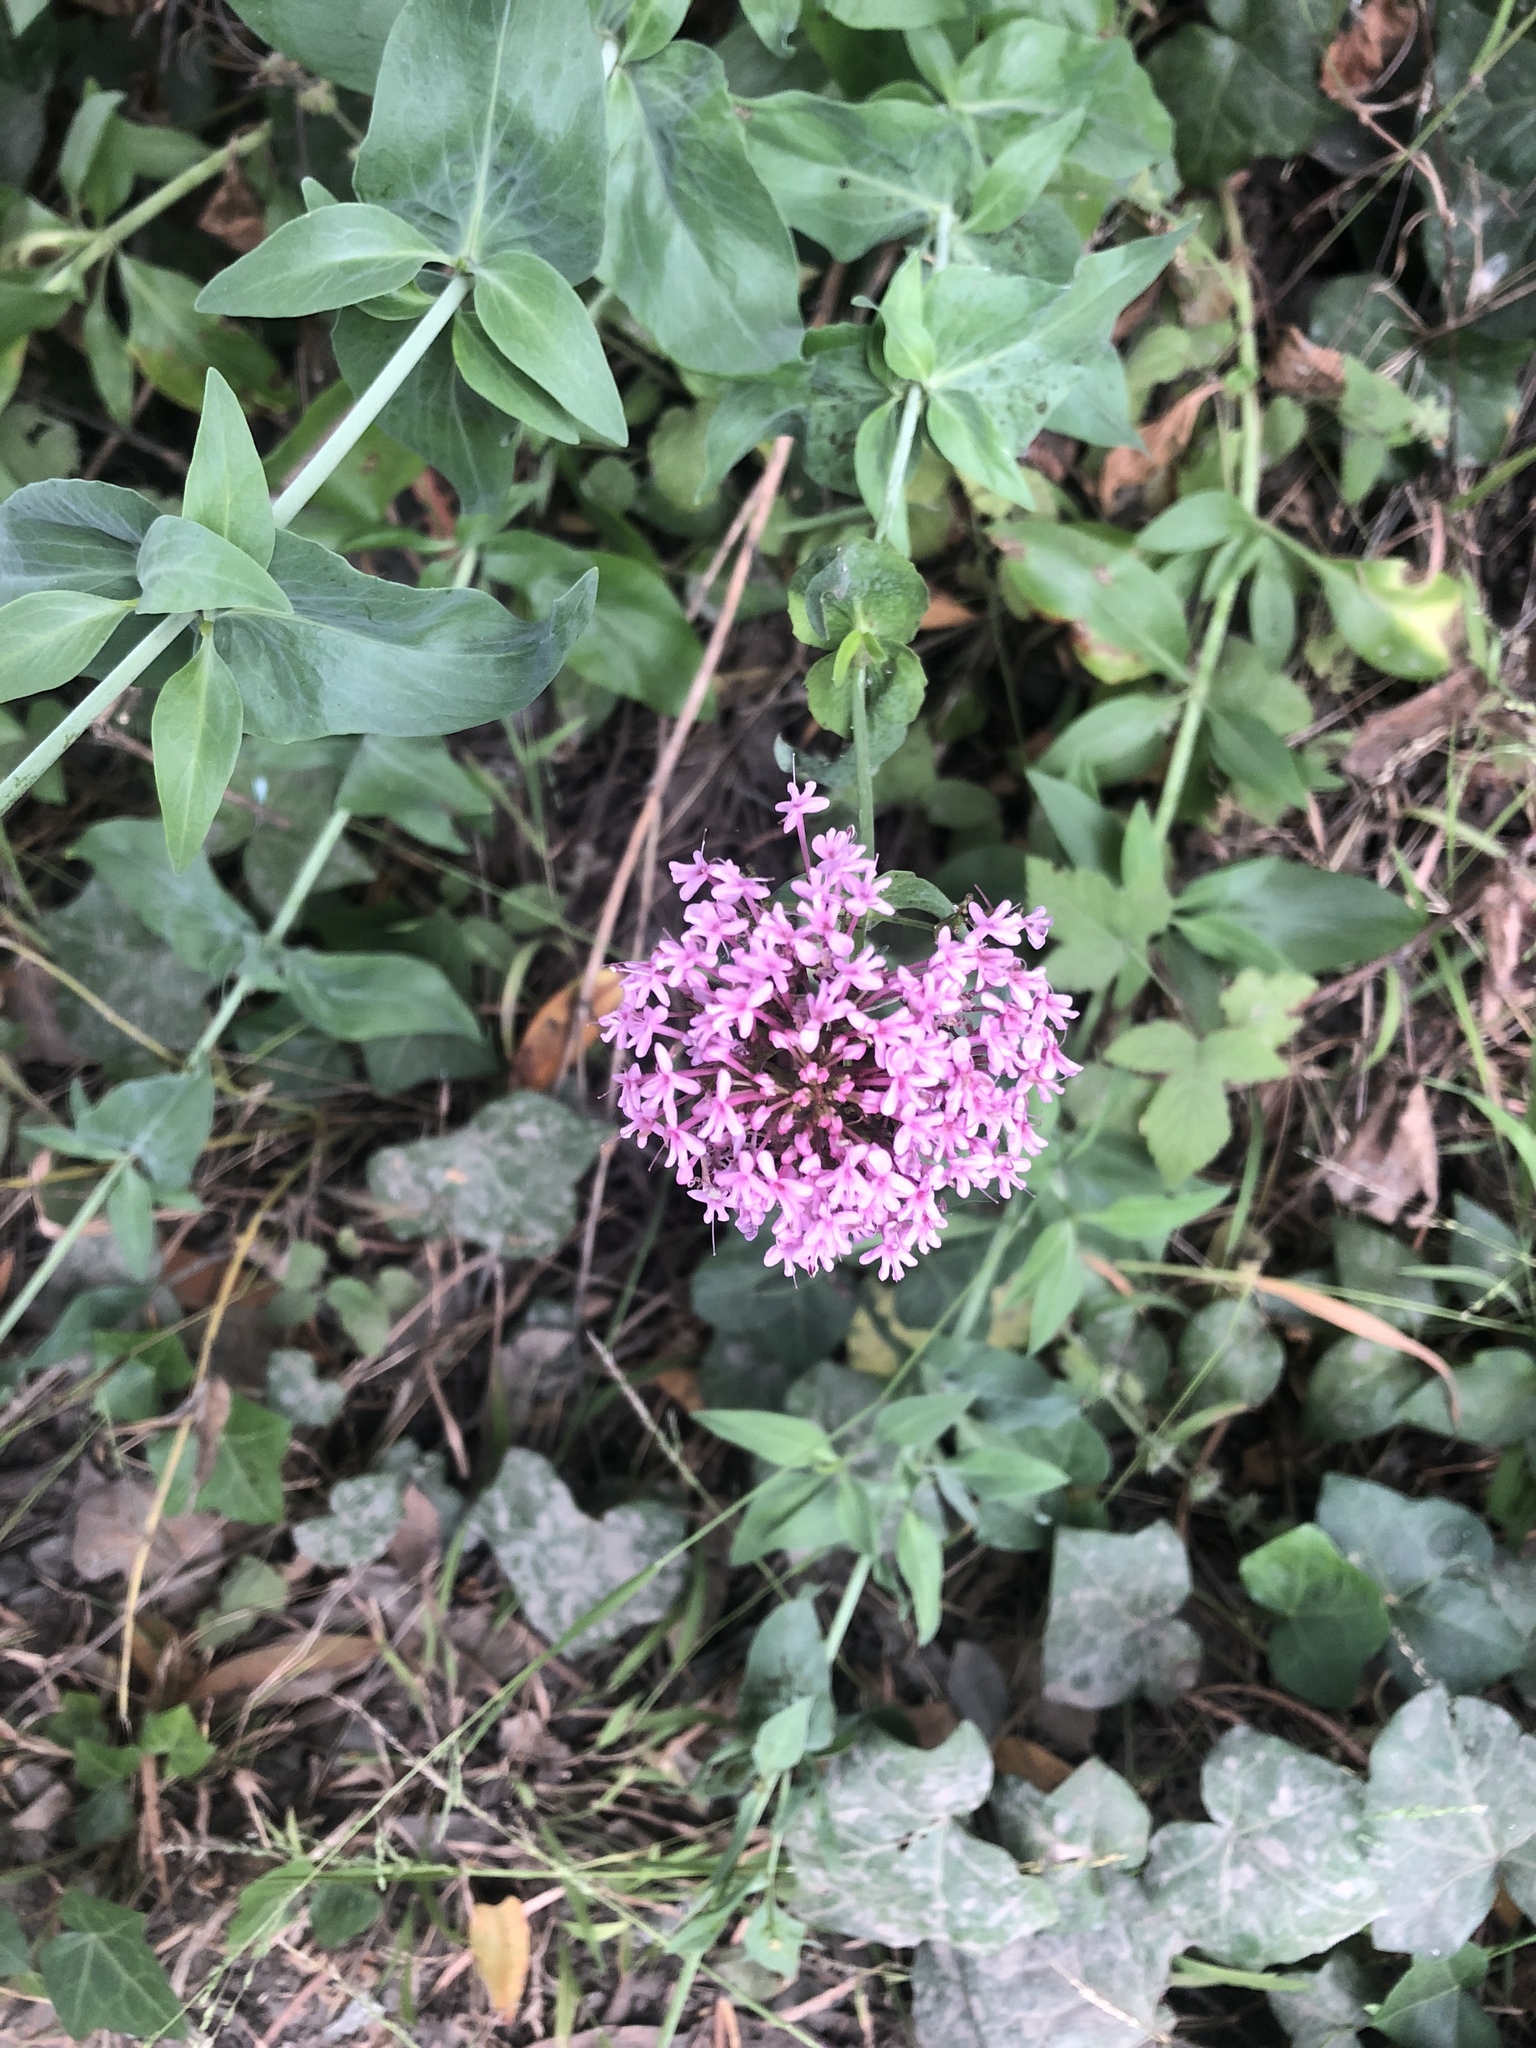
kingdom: Plantae
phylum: Tracheophyta
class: Magnoliopsida
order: Dipsacales
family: Caprifoliaceae
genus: Centranthus
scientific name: Centranthus ruber
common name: Red valerian
